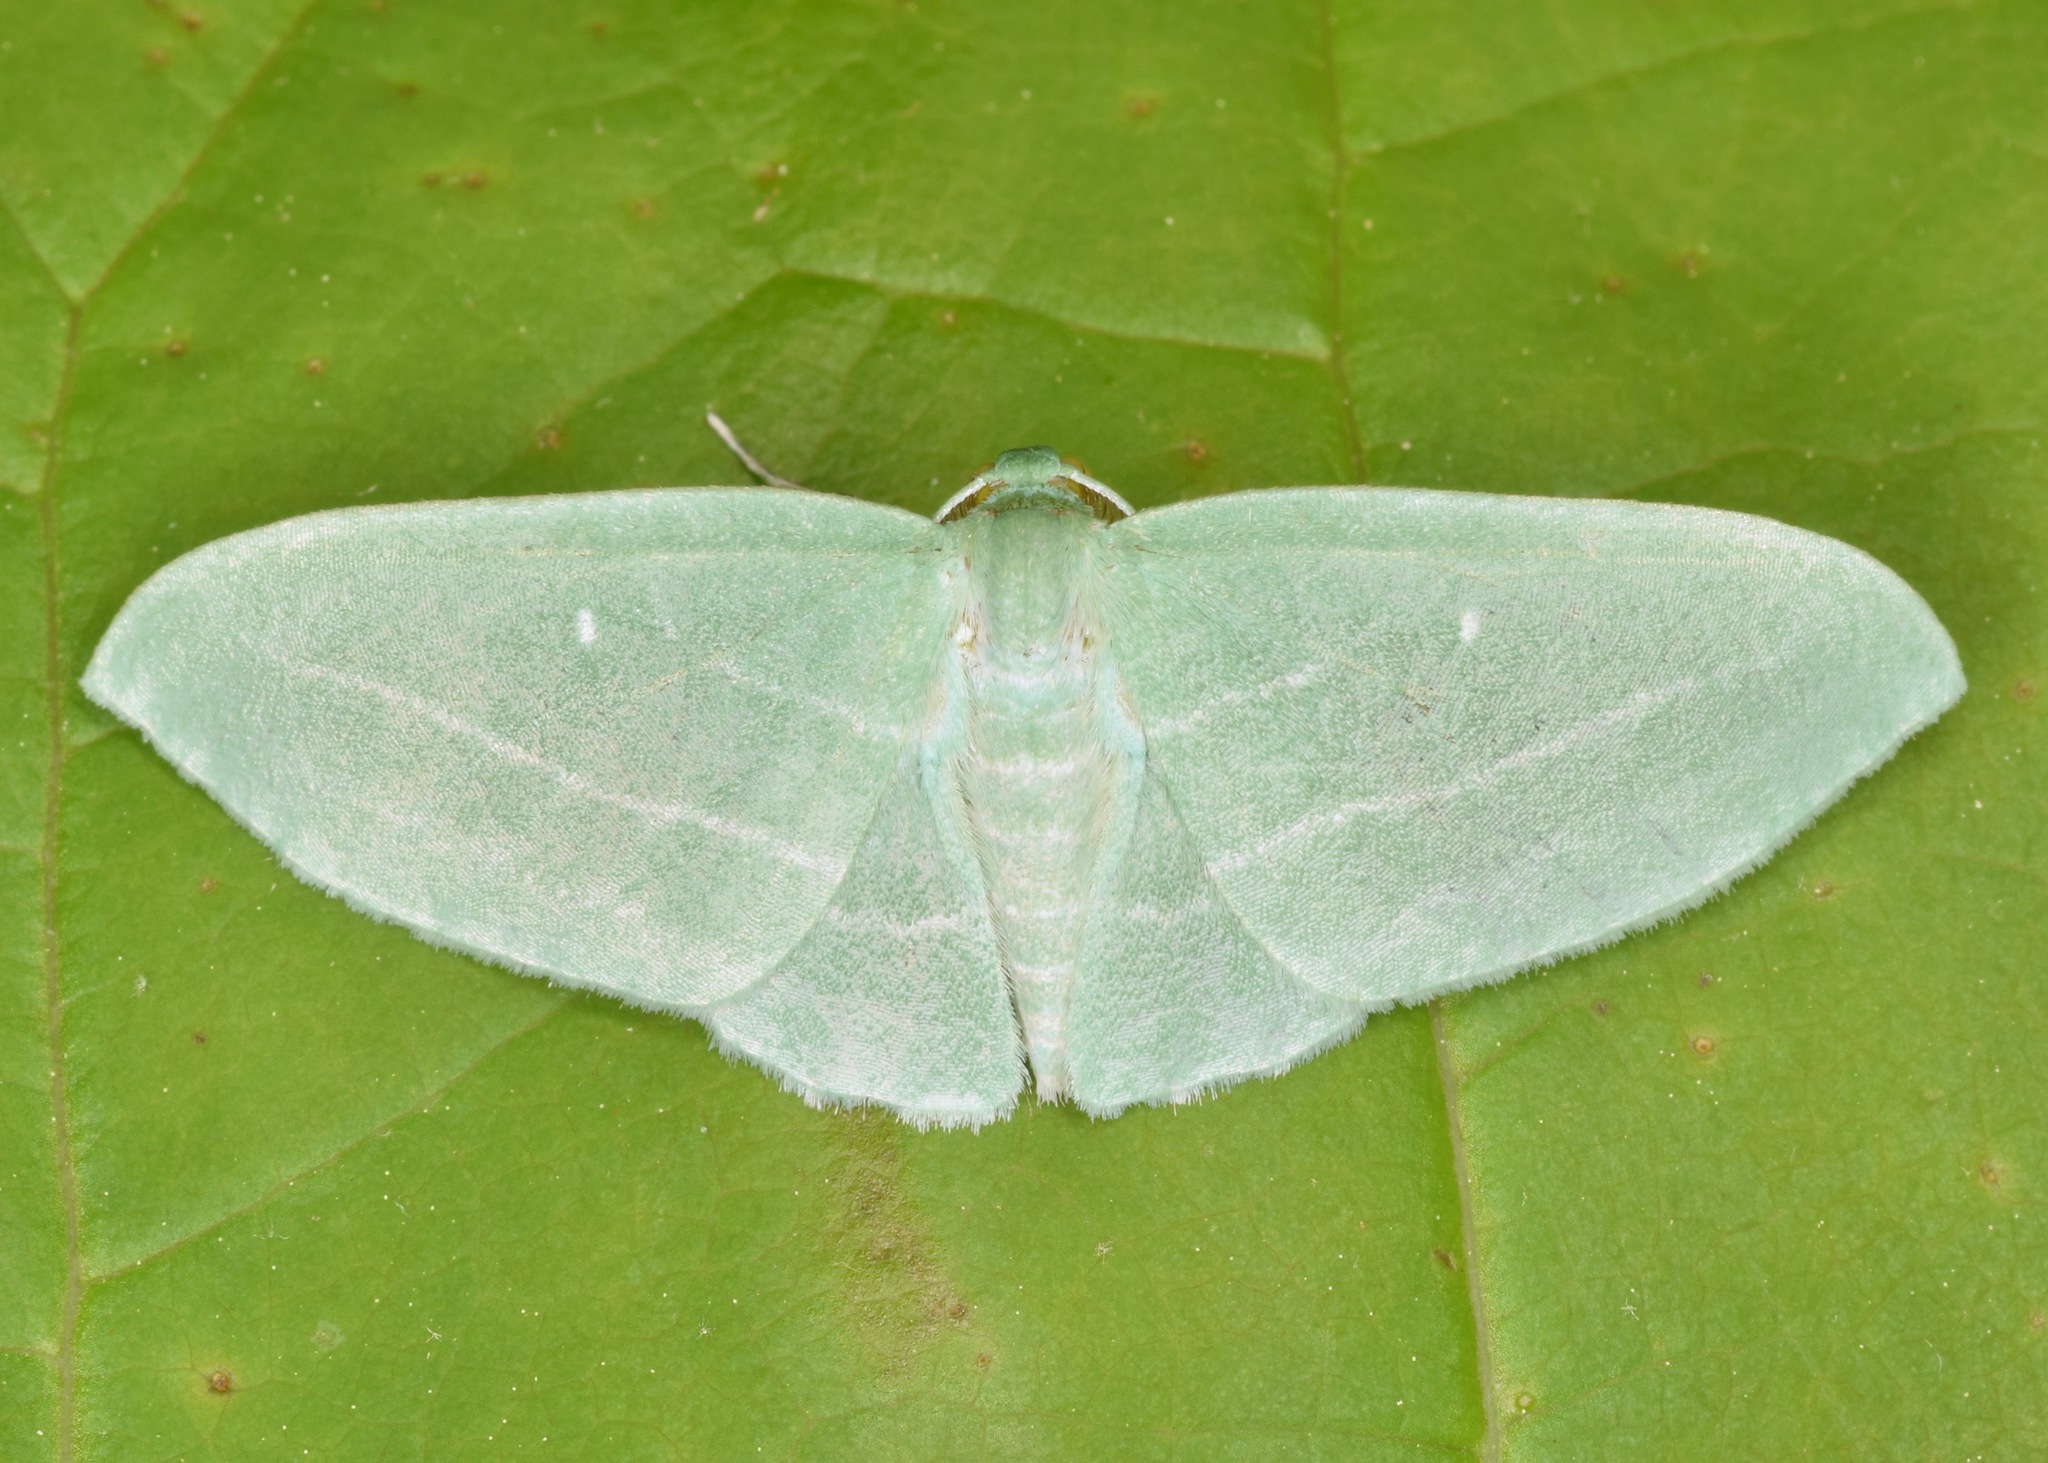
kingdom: Animalia
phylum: Arthropoda
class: Insecta
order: Lepidoptera
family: Geometridae
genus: Dyspteris
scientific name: Dyspteris abortivaria
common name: Bad-wing
